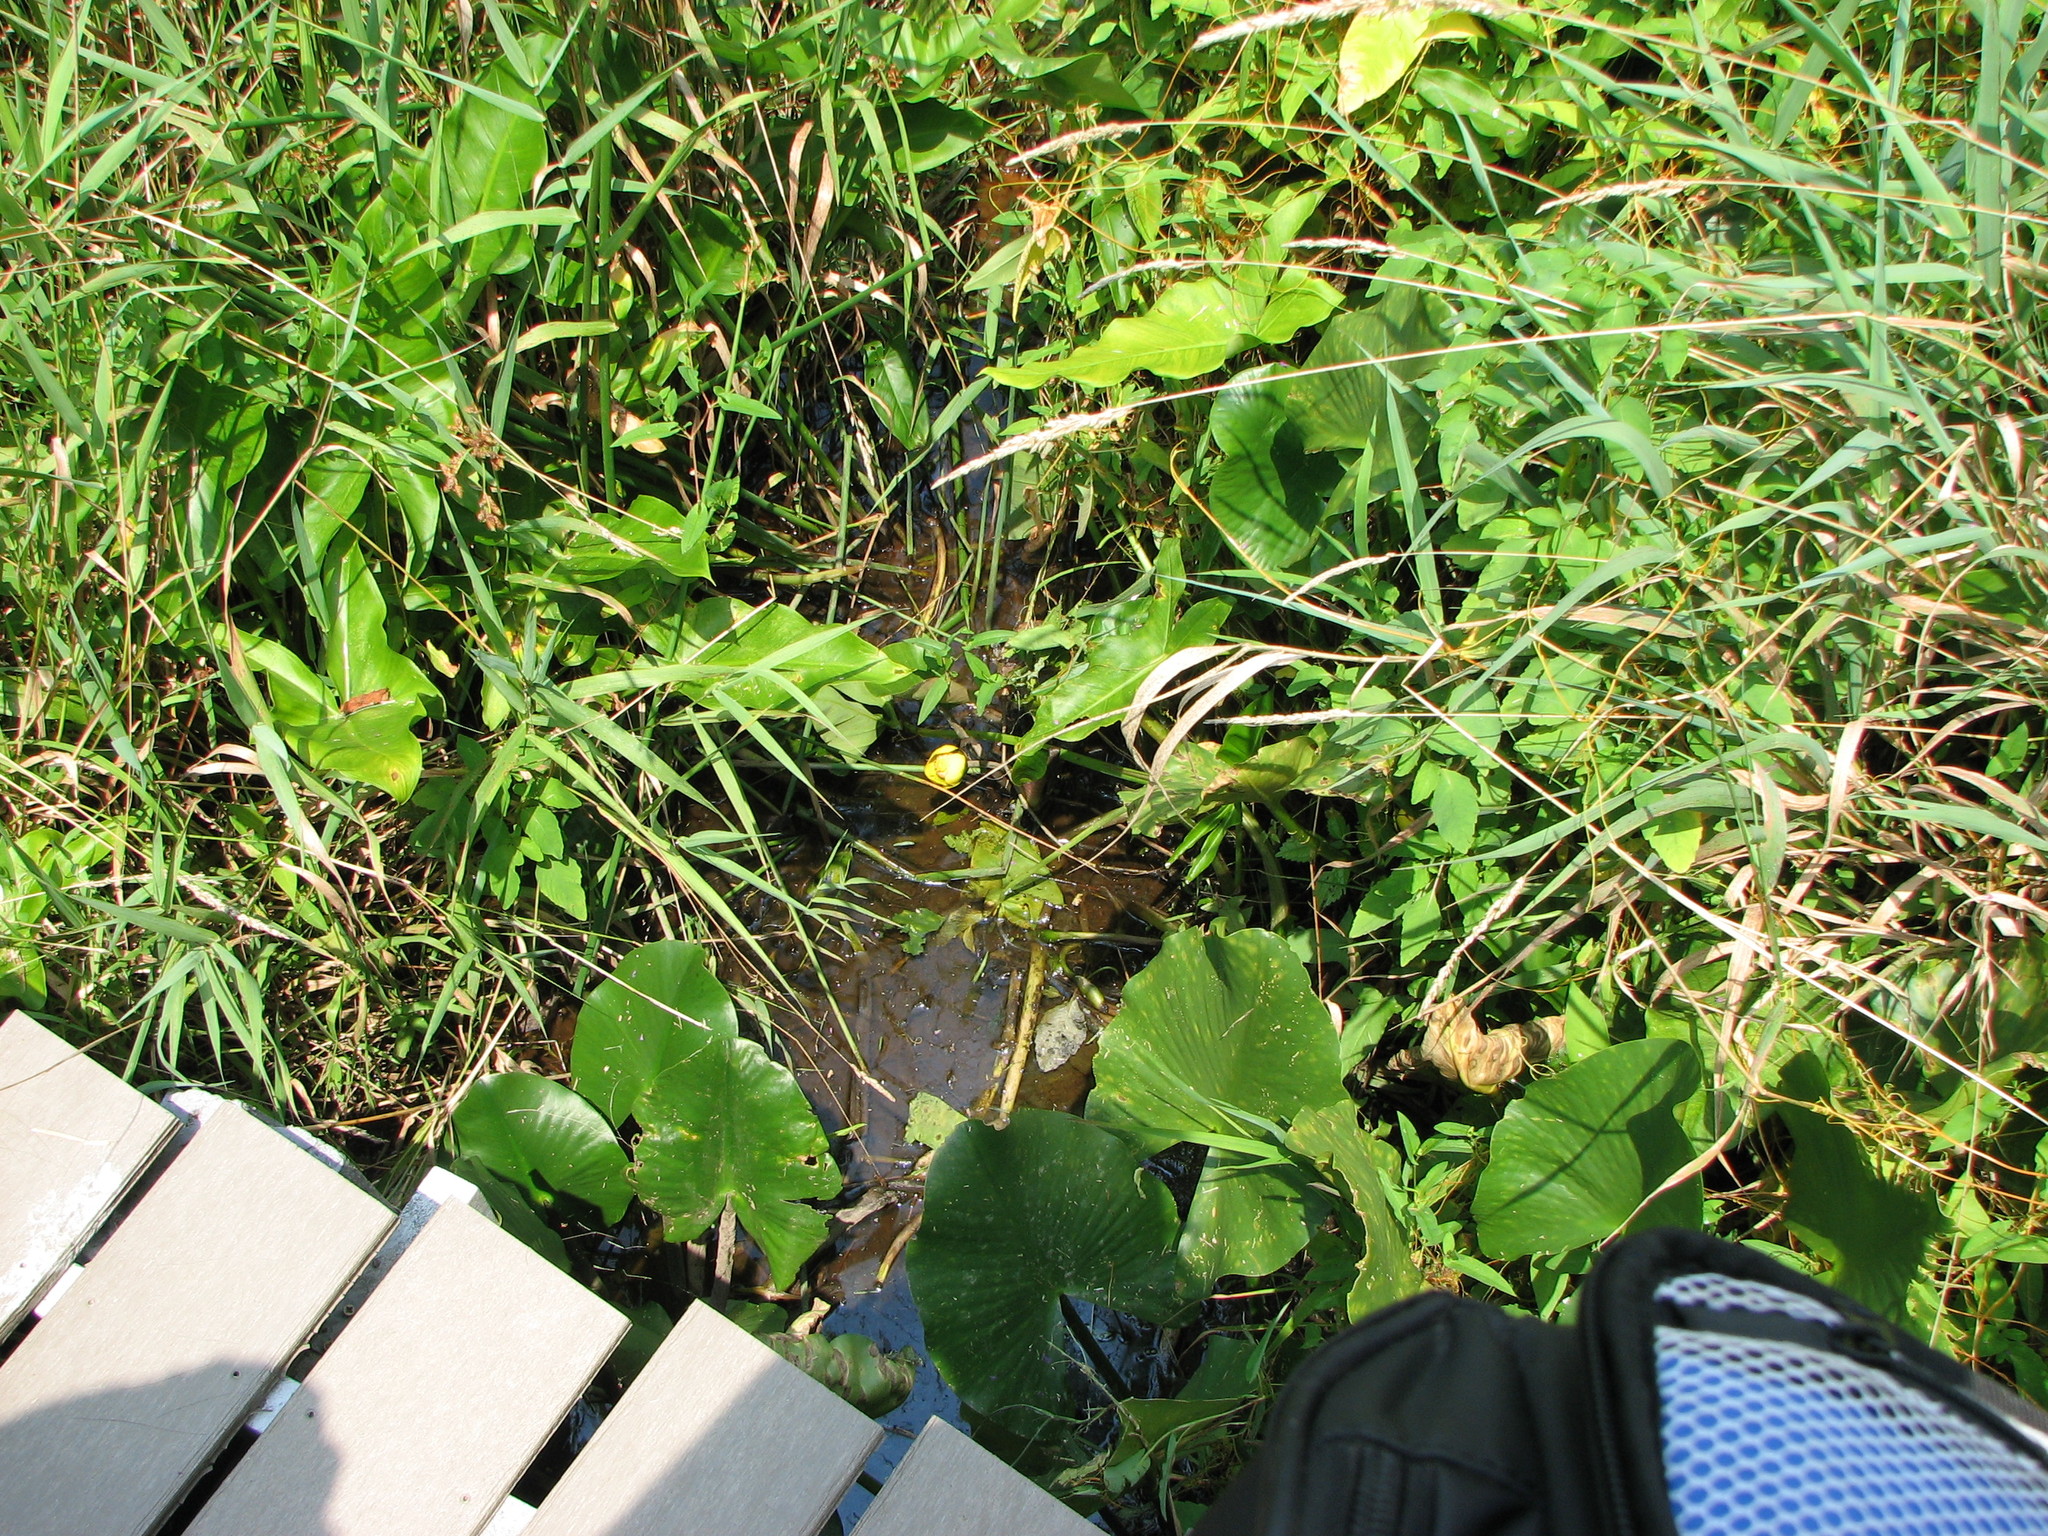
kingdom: Plantae
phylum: Tracheophyta
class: Magnoliopsida
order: Nymphaeales
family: Nymphaeaceae
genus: Nuphar
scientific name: Nuphar advena
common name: Spatter-dock
